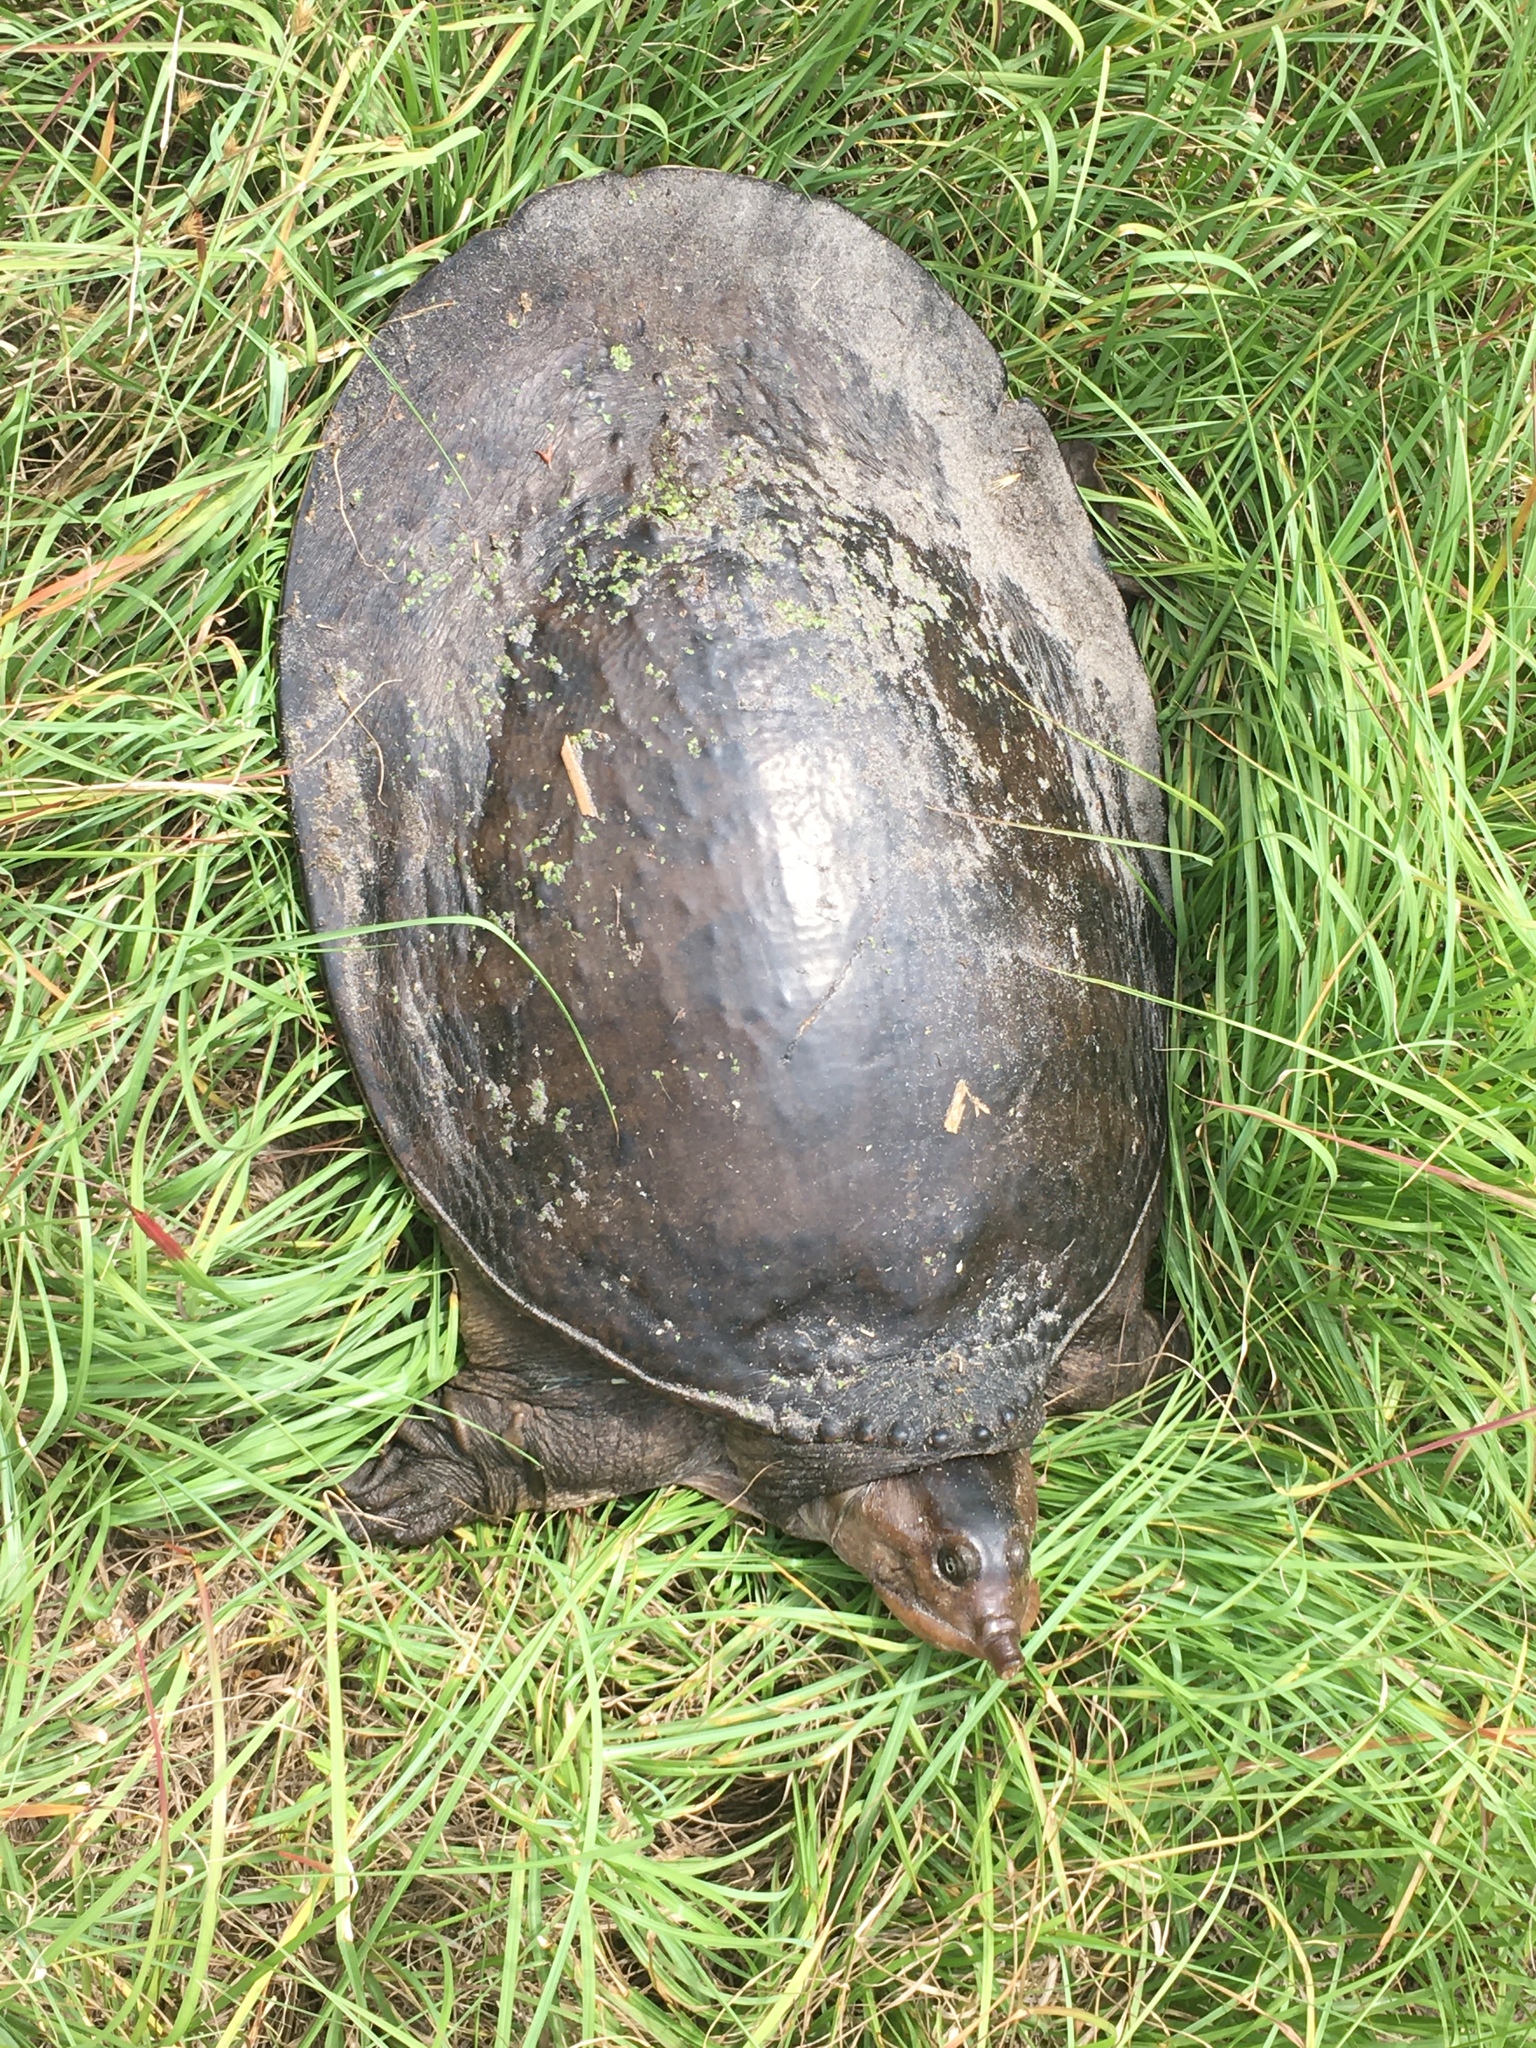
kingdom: Animalia
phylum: Chordata
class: Testudines
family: Trionychidae
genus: Apalone
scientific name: Apalone ferox
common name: Florida softshell turtle
